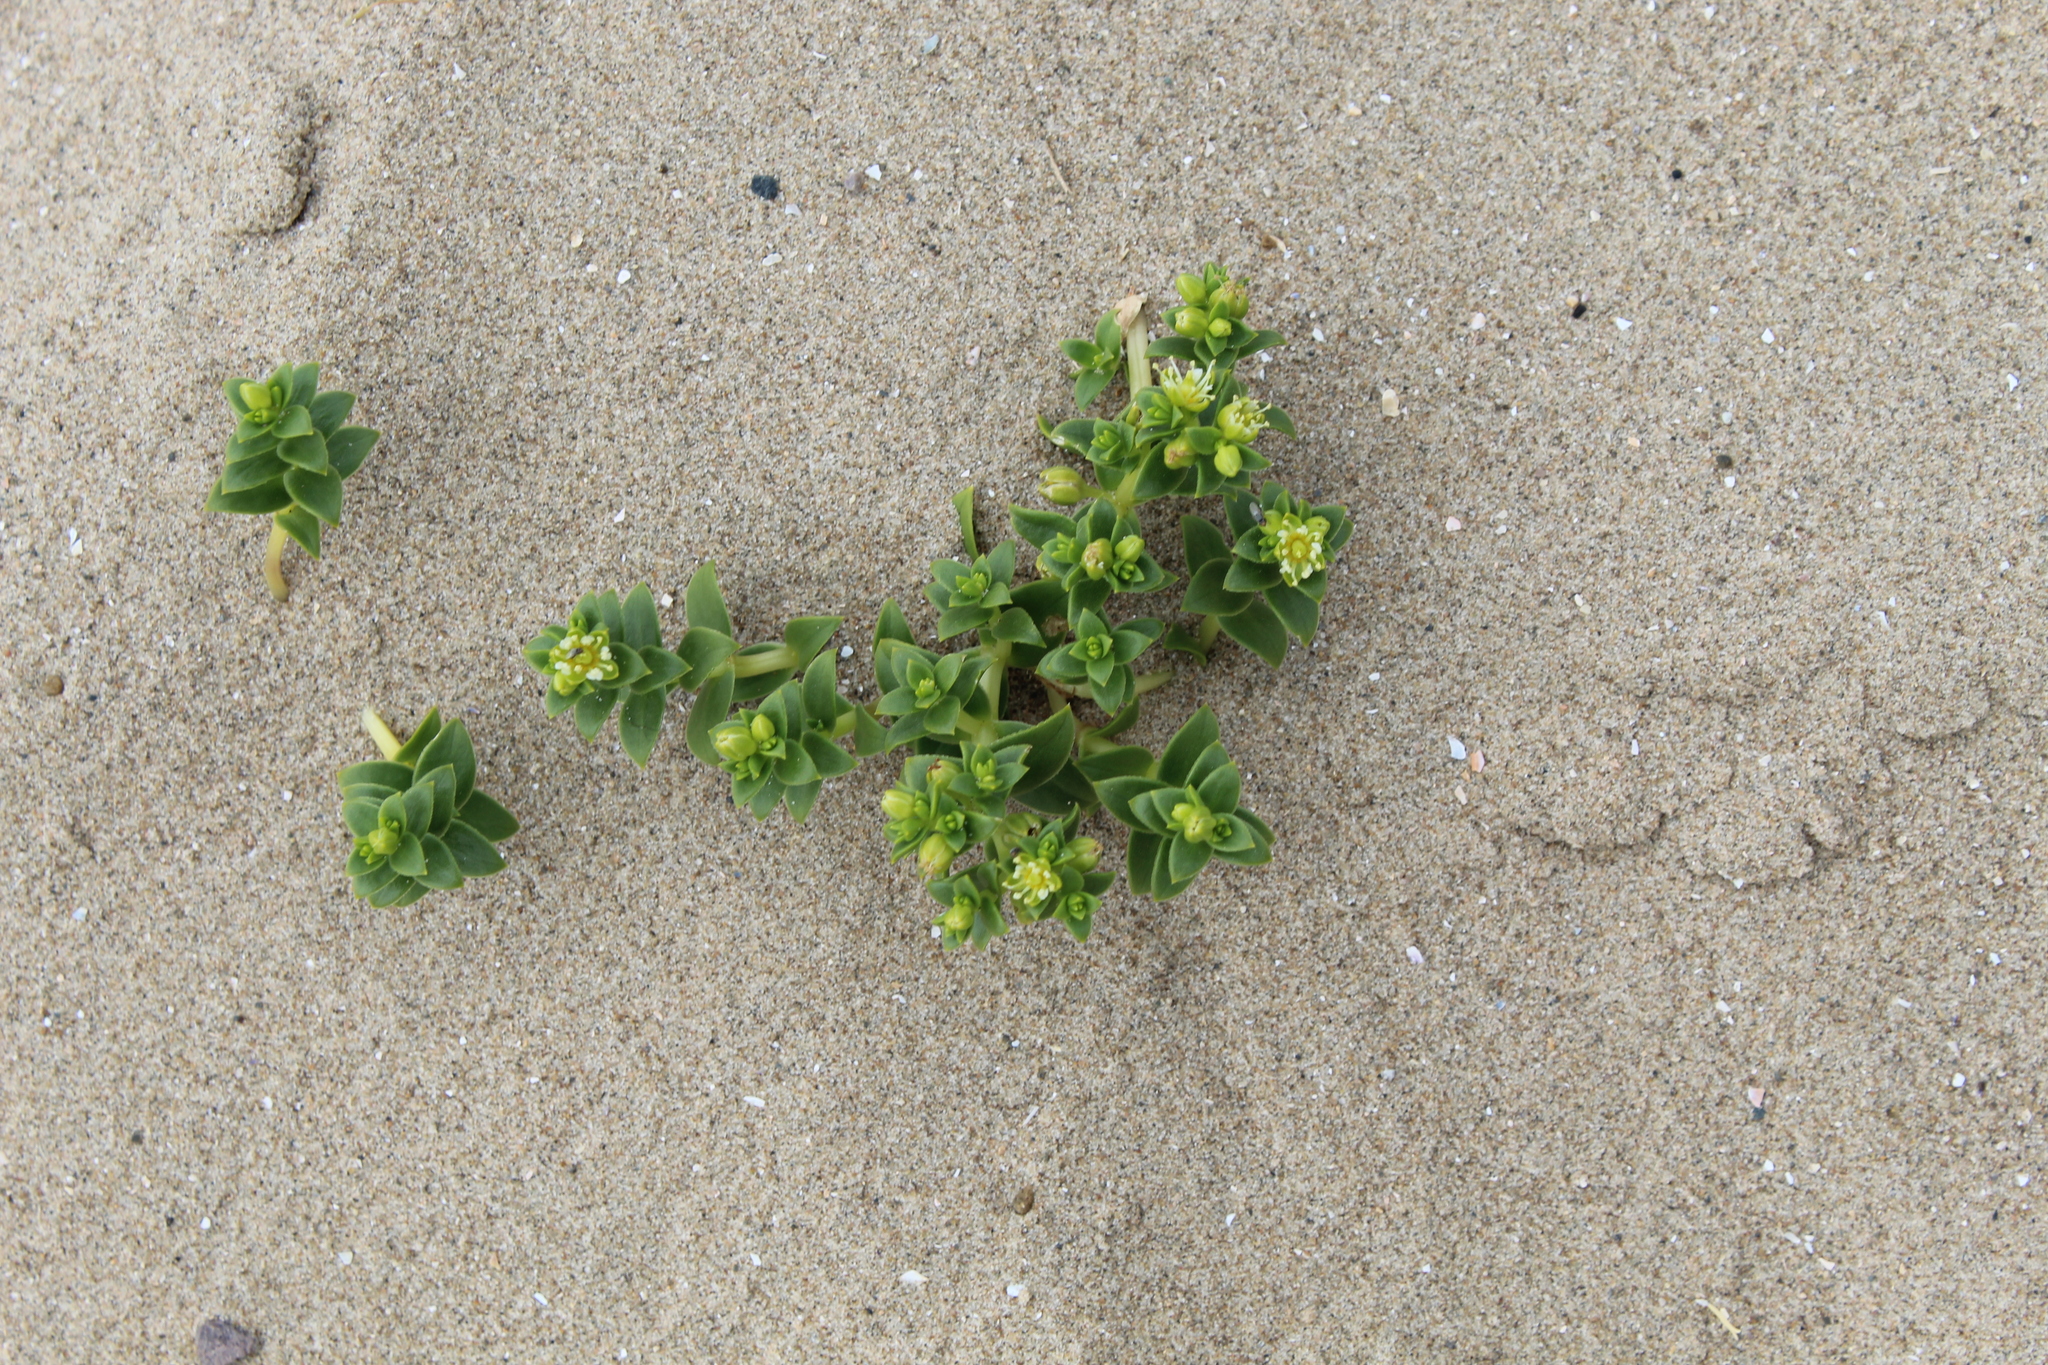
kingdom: Plantae
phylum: Tracheophyta
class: Magnoliopsida
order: Caryophyllales
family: Caryophyllaceae
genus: Honckenya
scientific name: Honckenya peploides
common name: Sea sandwort
